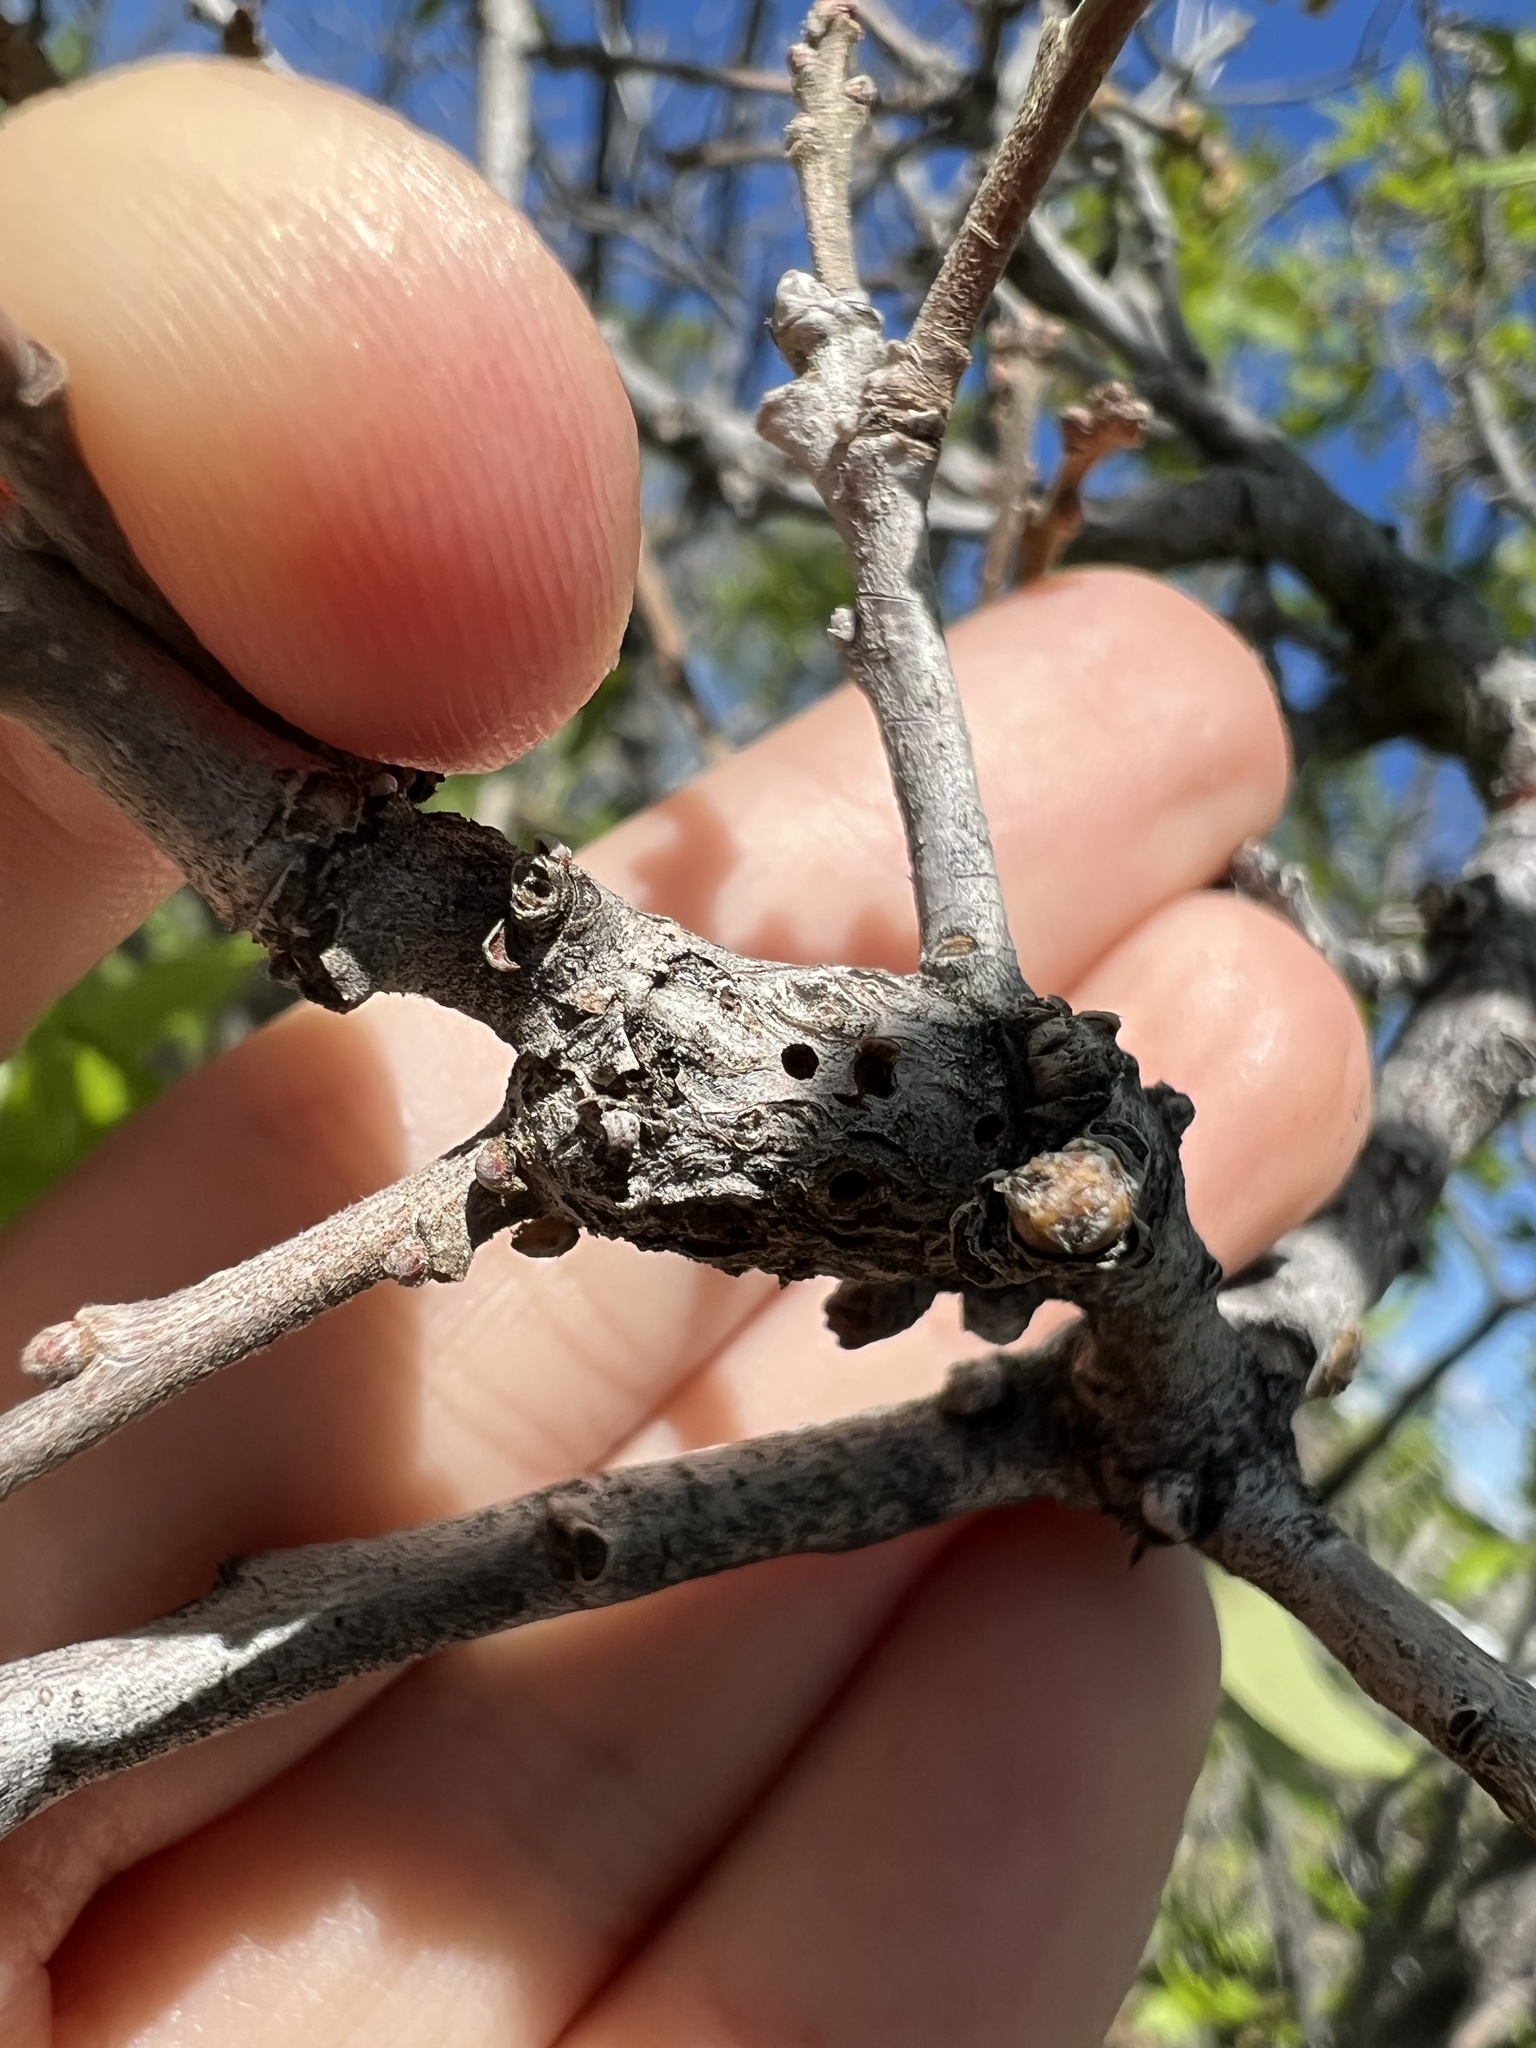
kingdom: Animalia
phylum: Arthropoda
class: Insecta
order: Hymenoptera
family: Cynipidae
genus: Callirhytis
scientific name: Callirhytis
